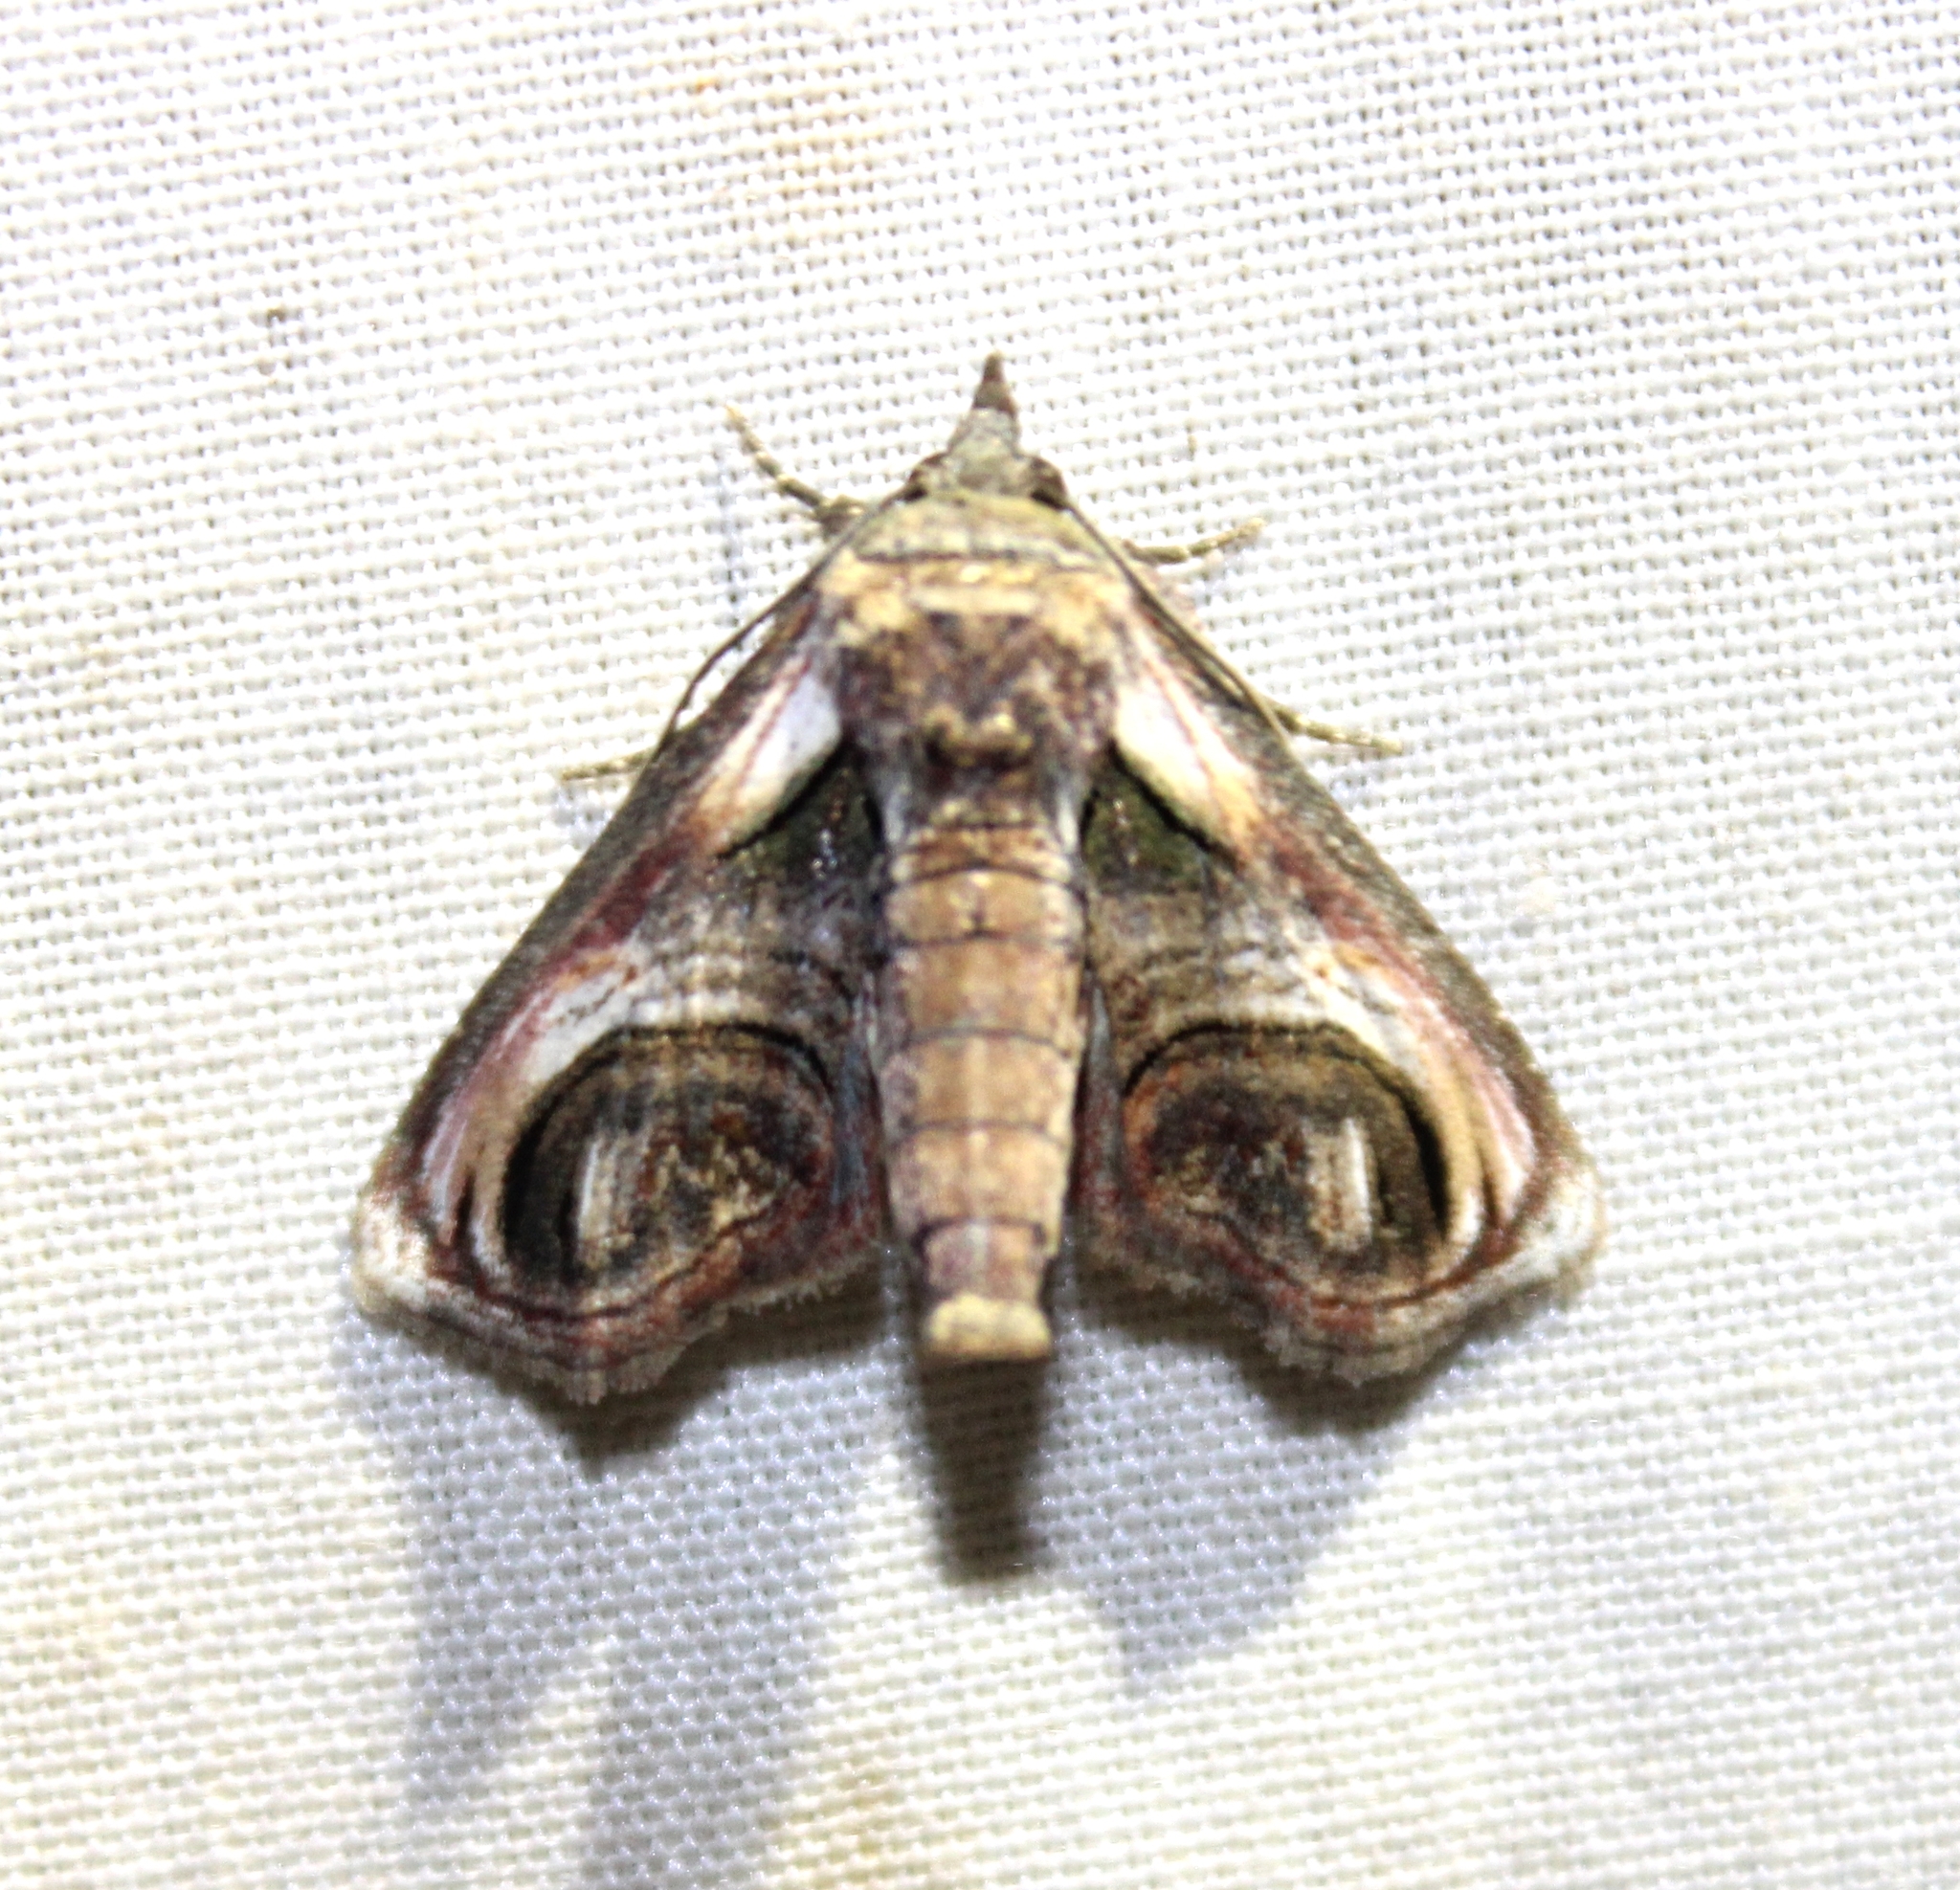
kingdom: Animalia
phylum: Arthropoda
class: Insecta
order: Lepidoptera
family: Euteliidae
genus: Paectes
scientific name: Paectes oculatrix
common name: Eyed paectes moth
